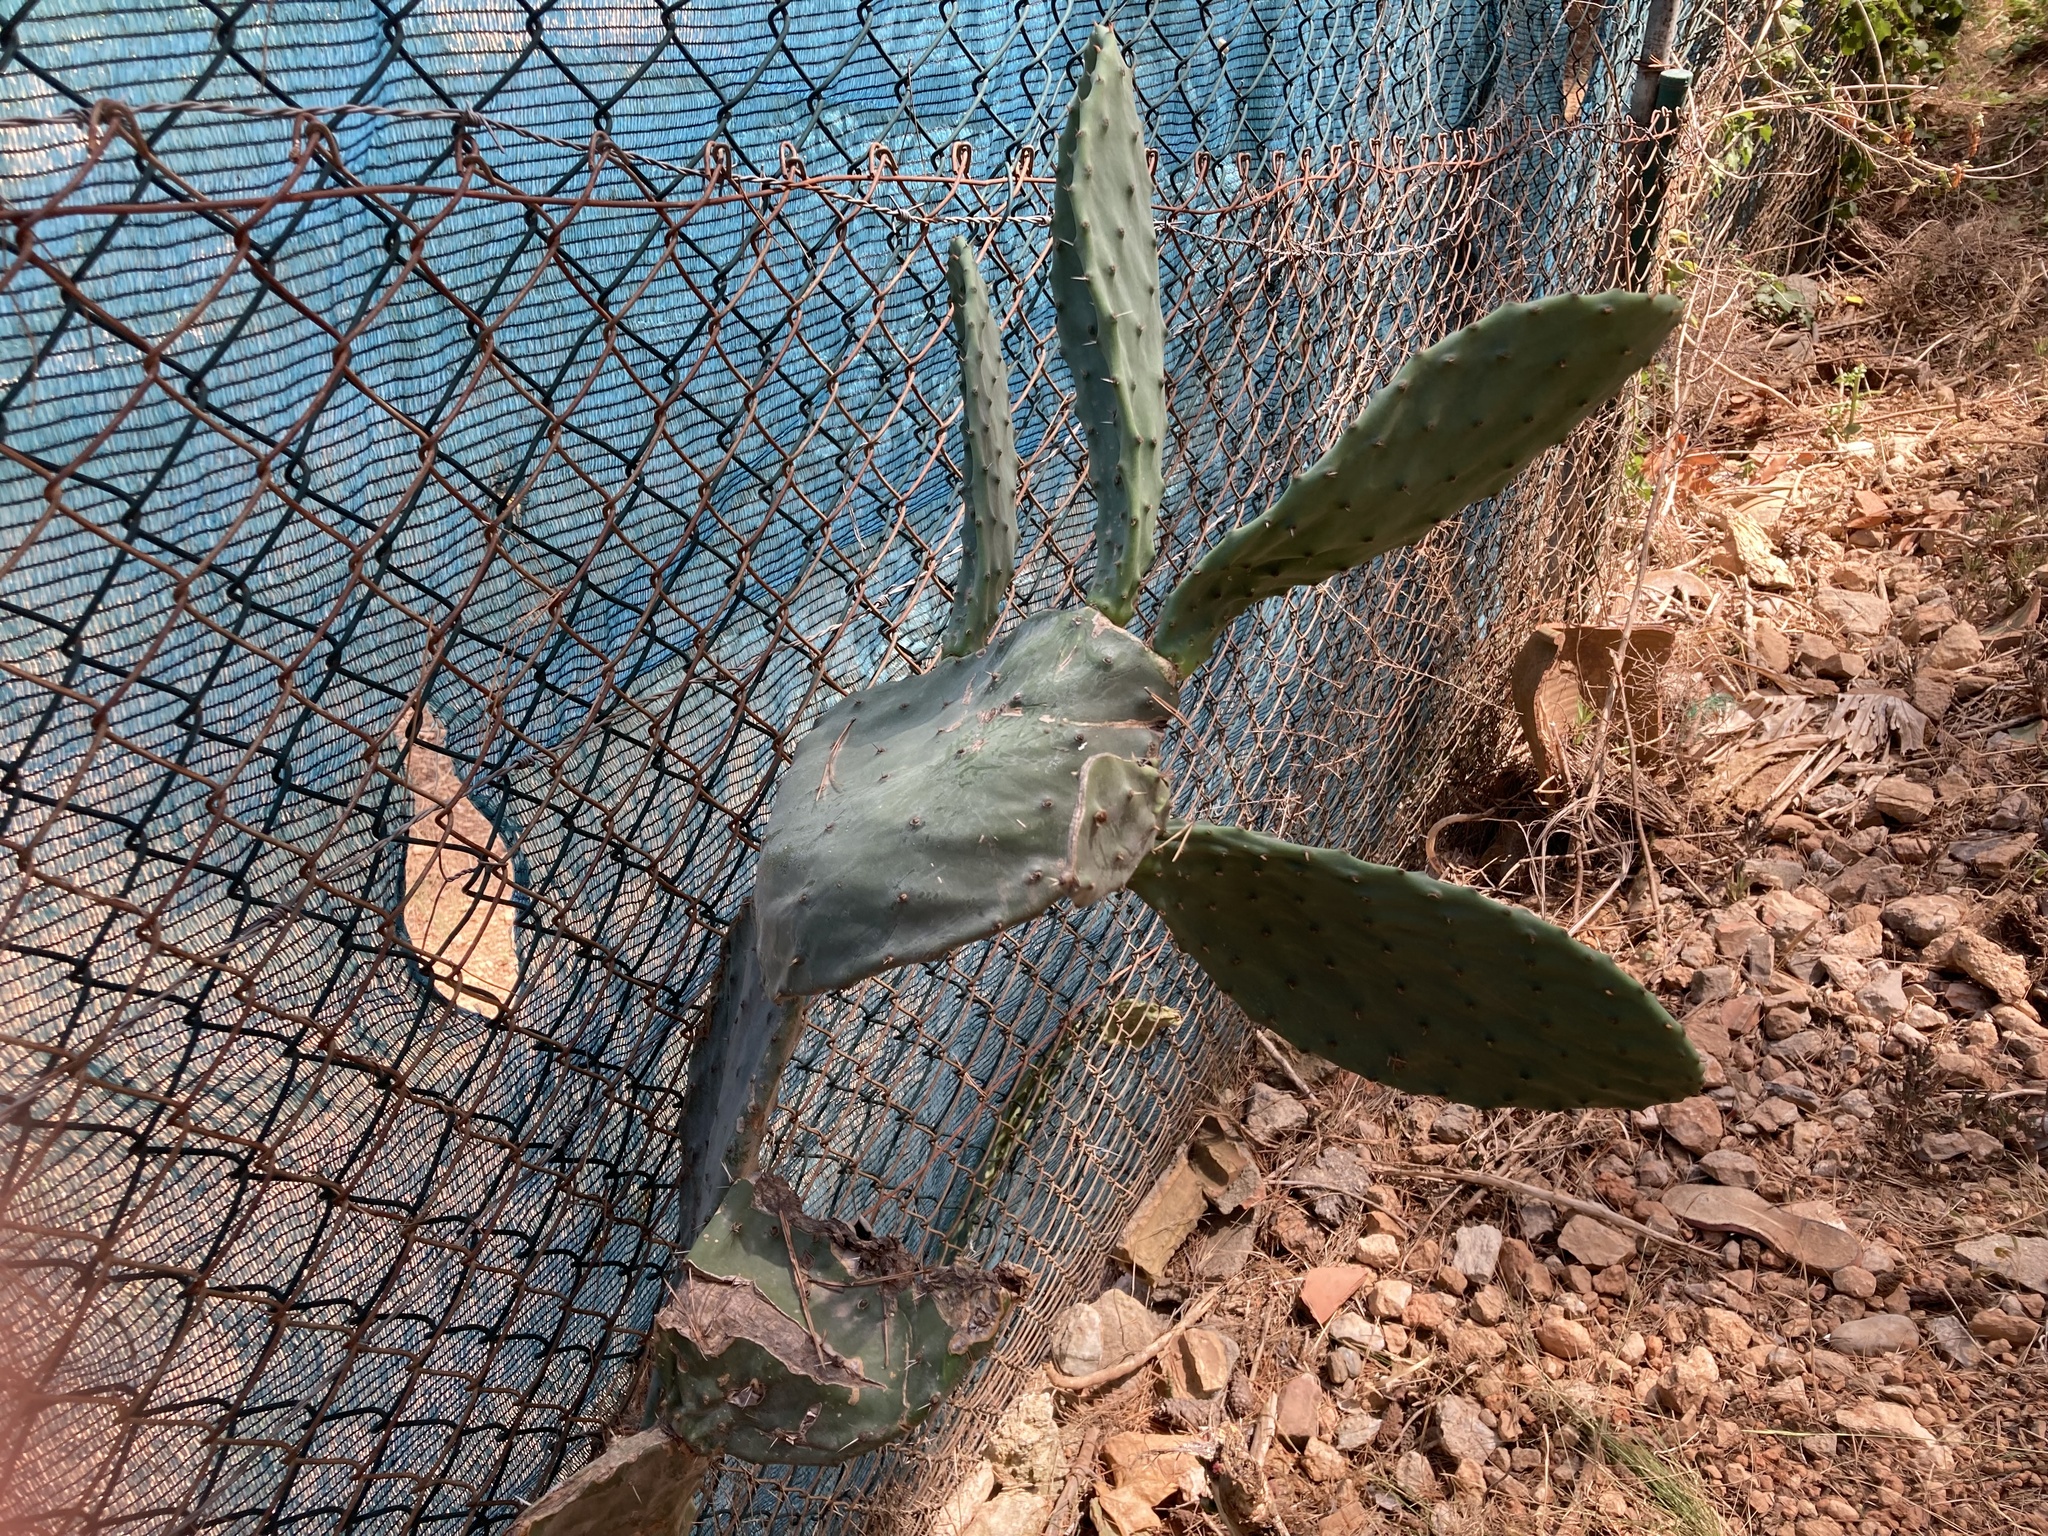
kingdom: Plantae
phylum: Tracheophyta
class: Magnoliopsida
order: Caryophyllales
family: Cactaceae
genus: Opuntia
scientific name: Opuntia ficus-indica
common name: Barbary fig
